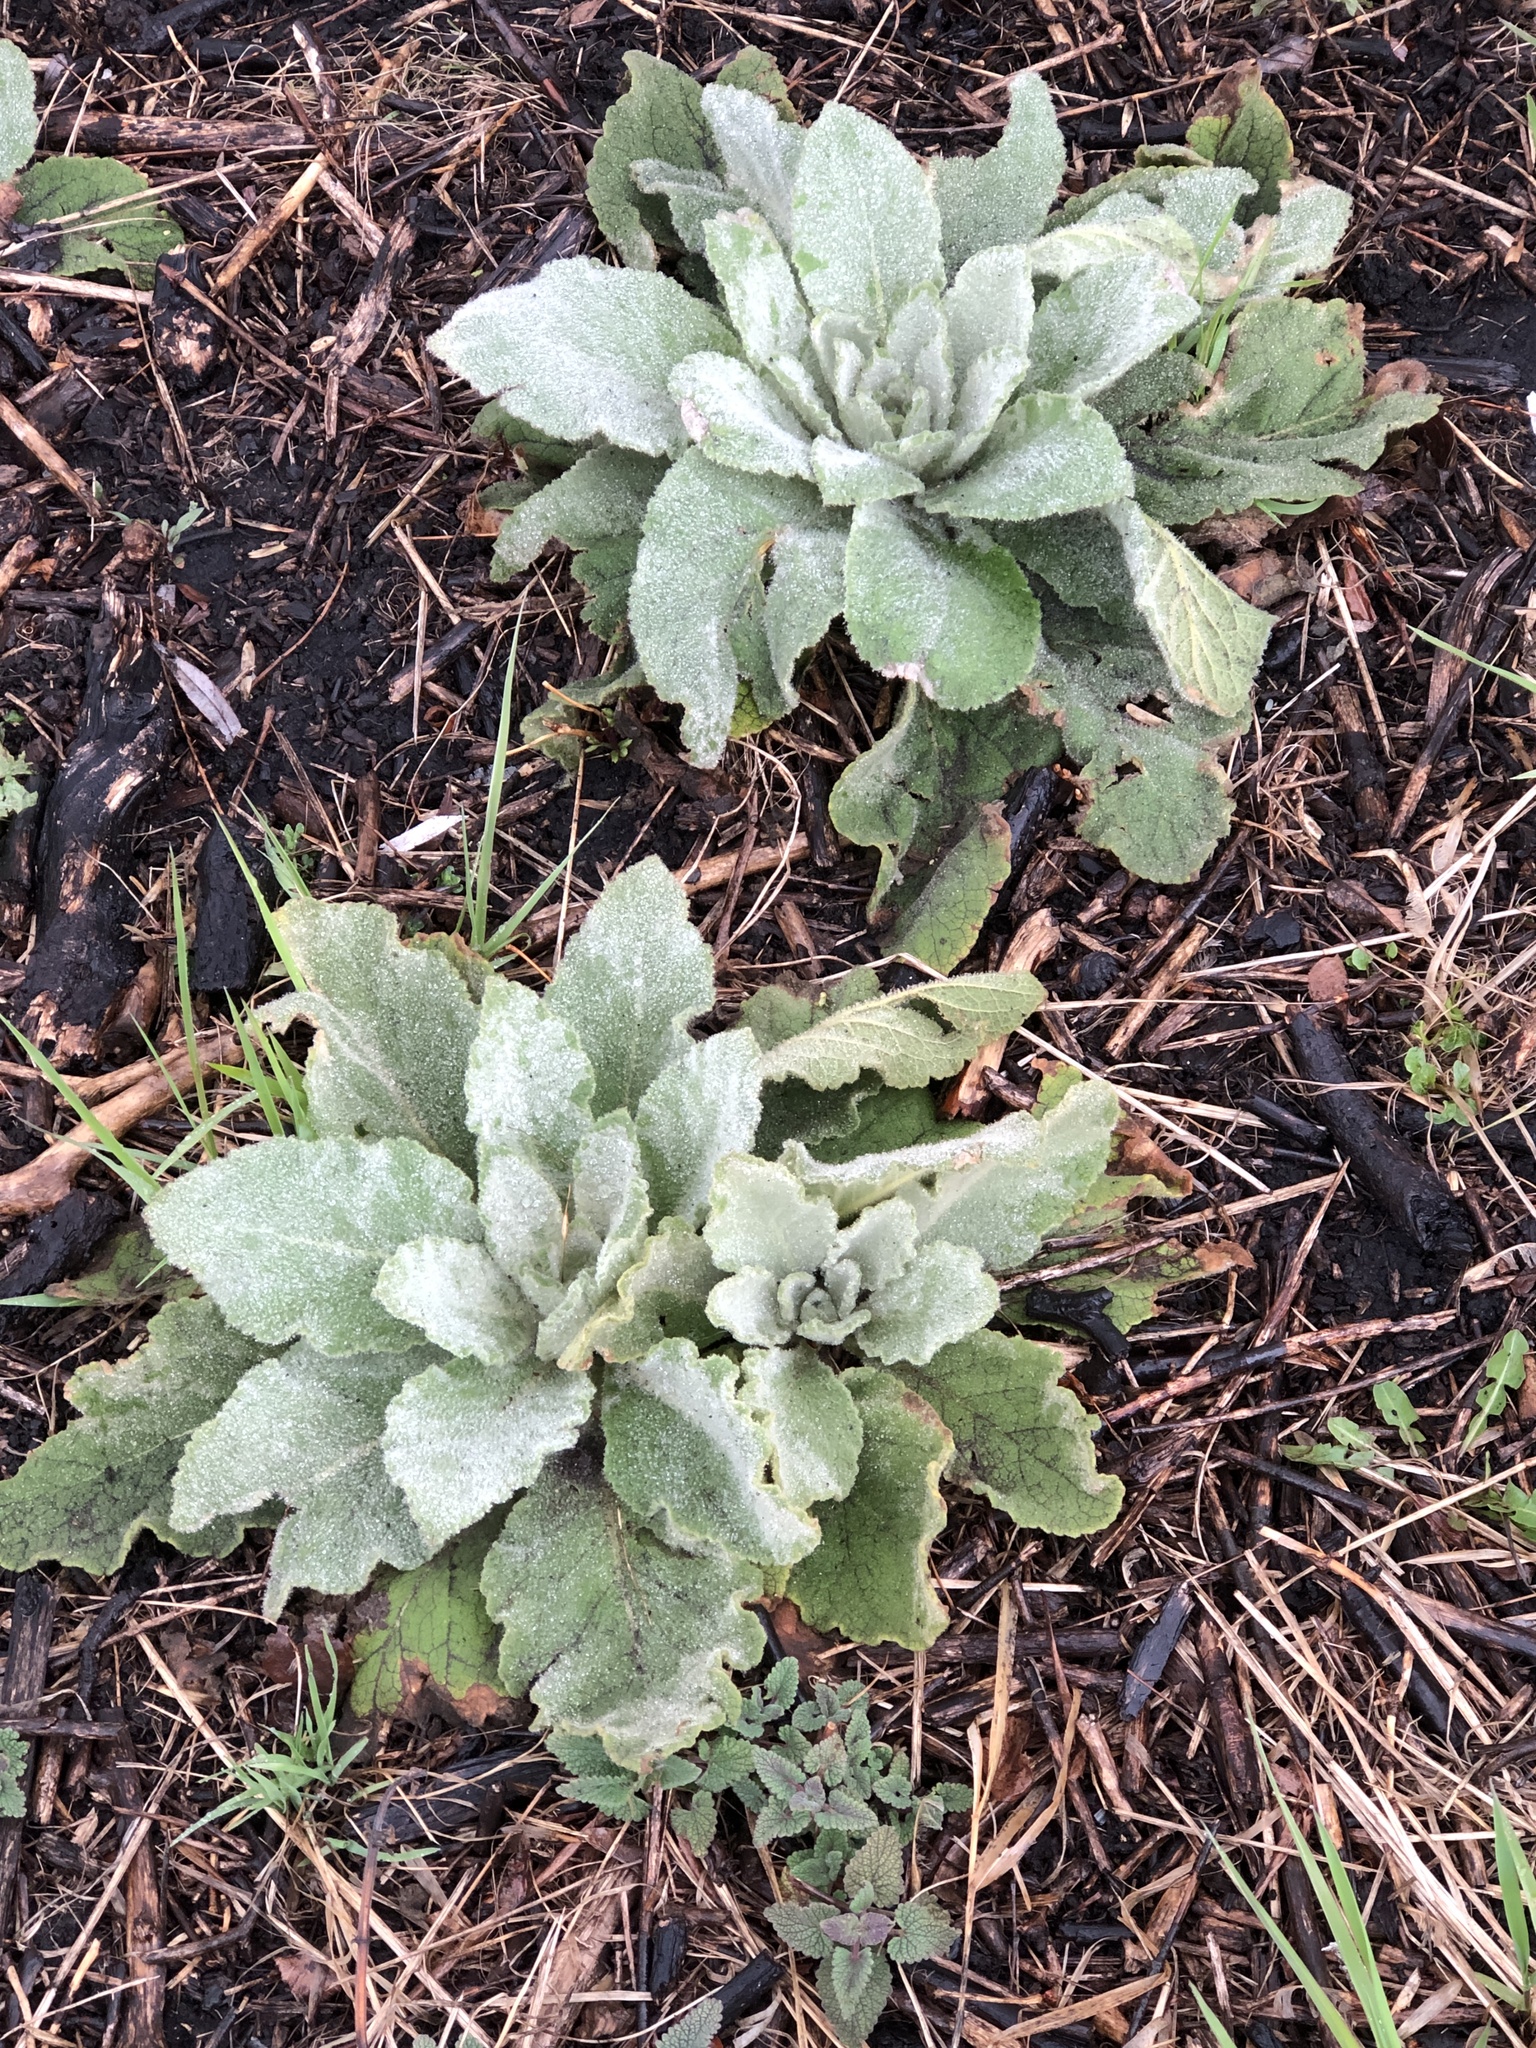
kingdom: Plantae
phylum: Tracheophyta
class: Magnoliopsida
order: Lamiales
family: Scrophulariaceae
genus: Verbascum
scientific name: Verbascum thapsus
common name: Common mullein
